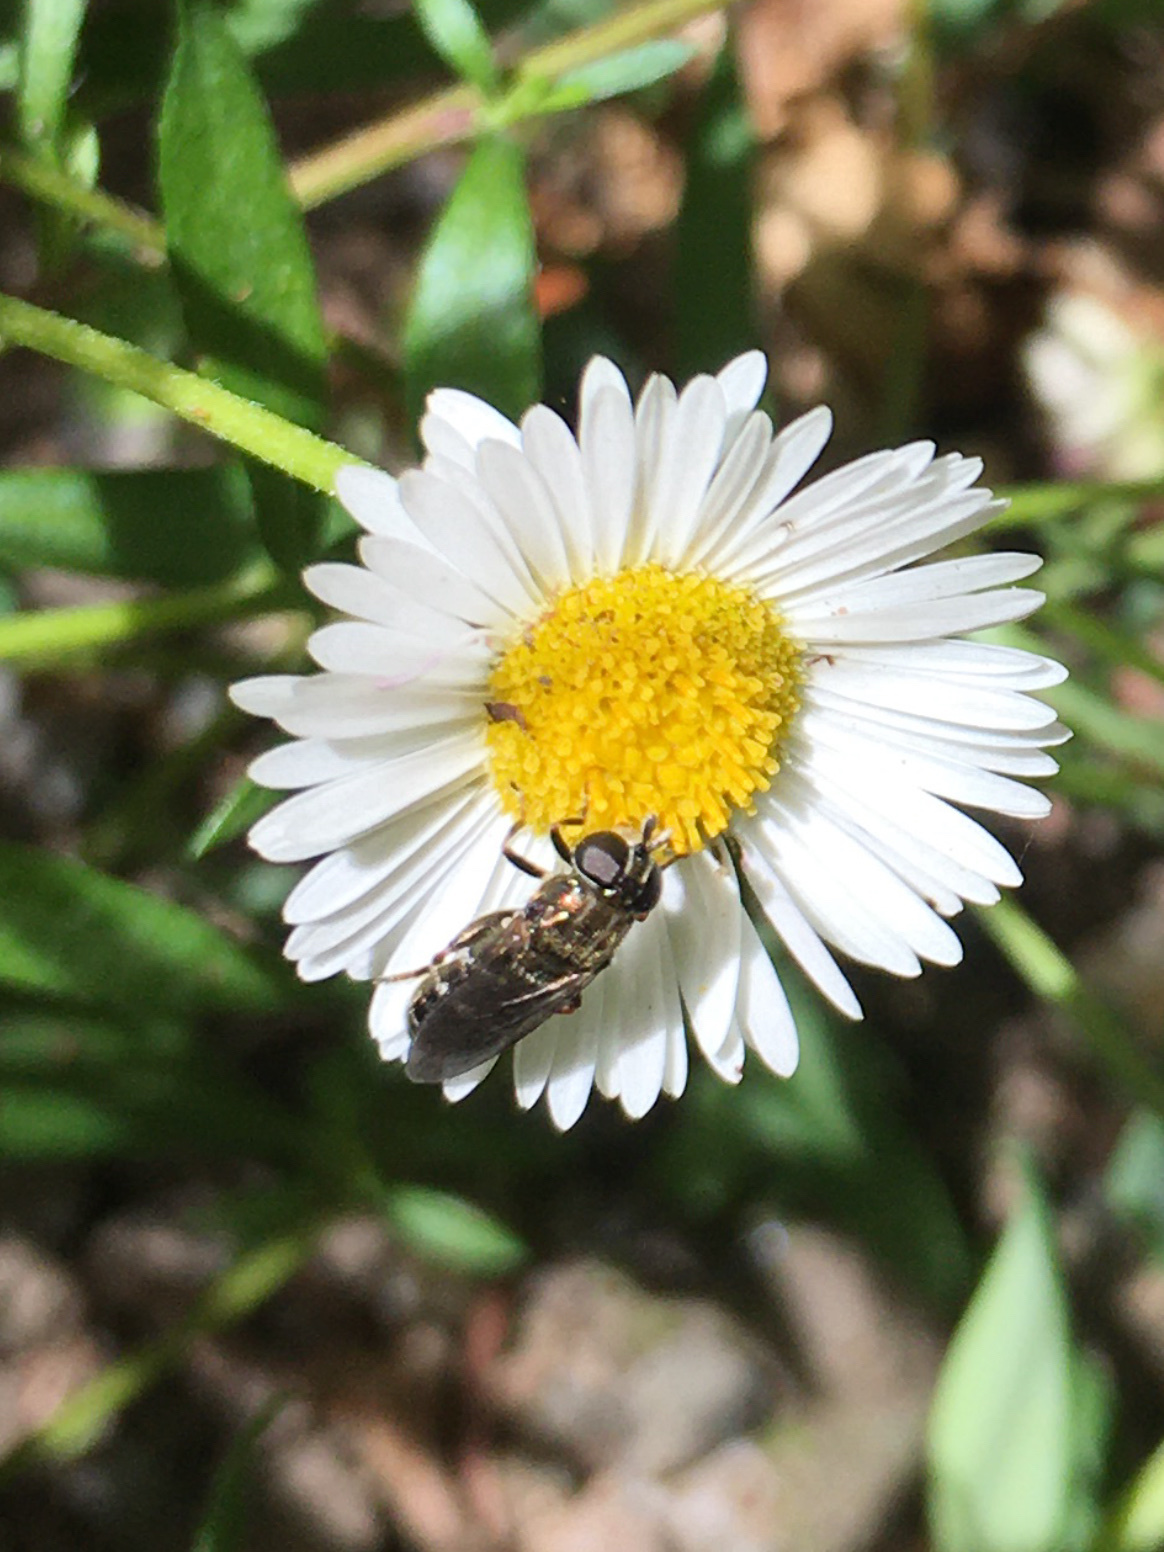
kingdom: Animalia
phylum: Arthropoda
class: Insecta
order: Diptera
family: Syrphidae
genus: Eumerus
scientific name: Eumerus
